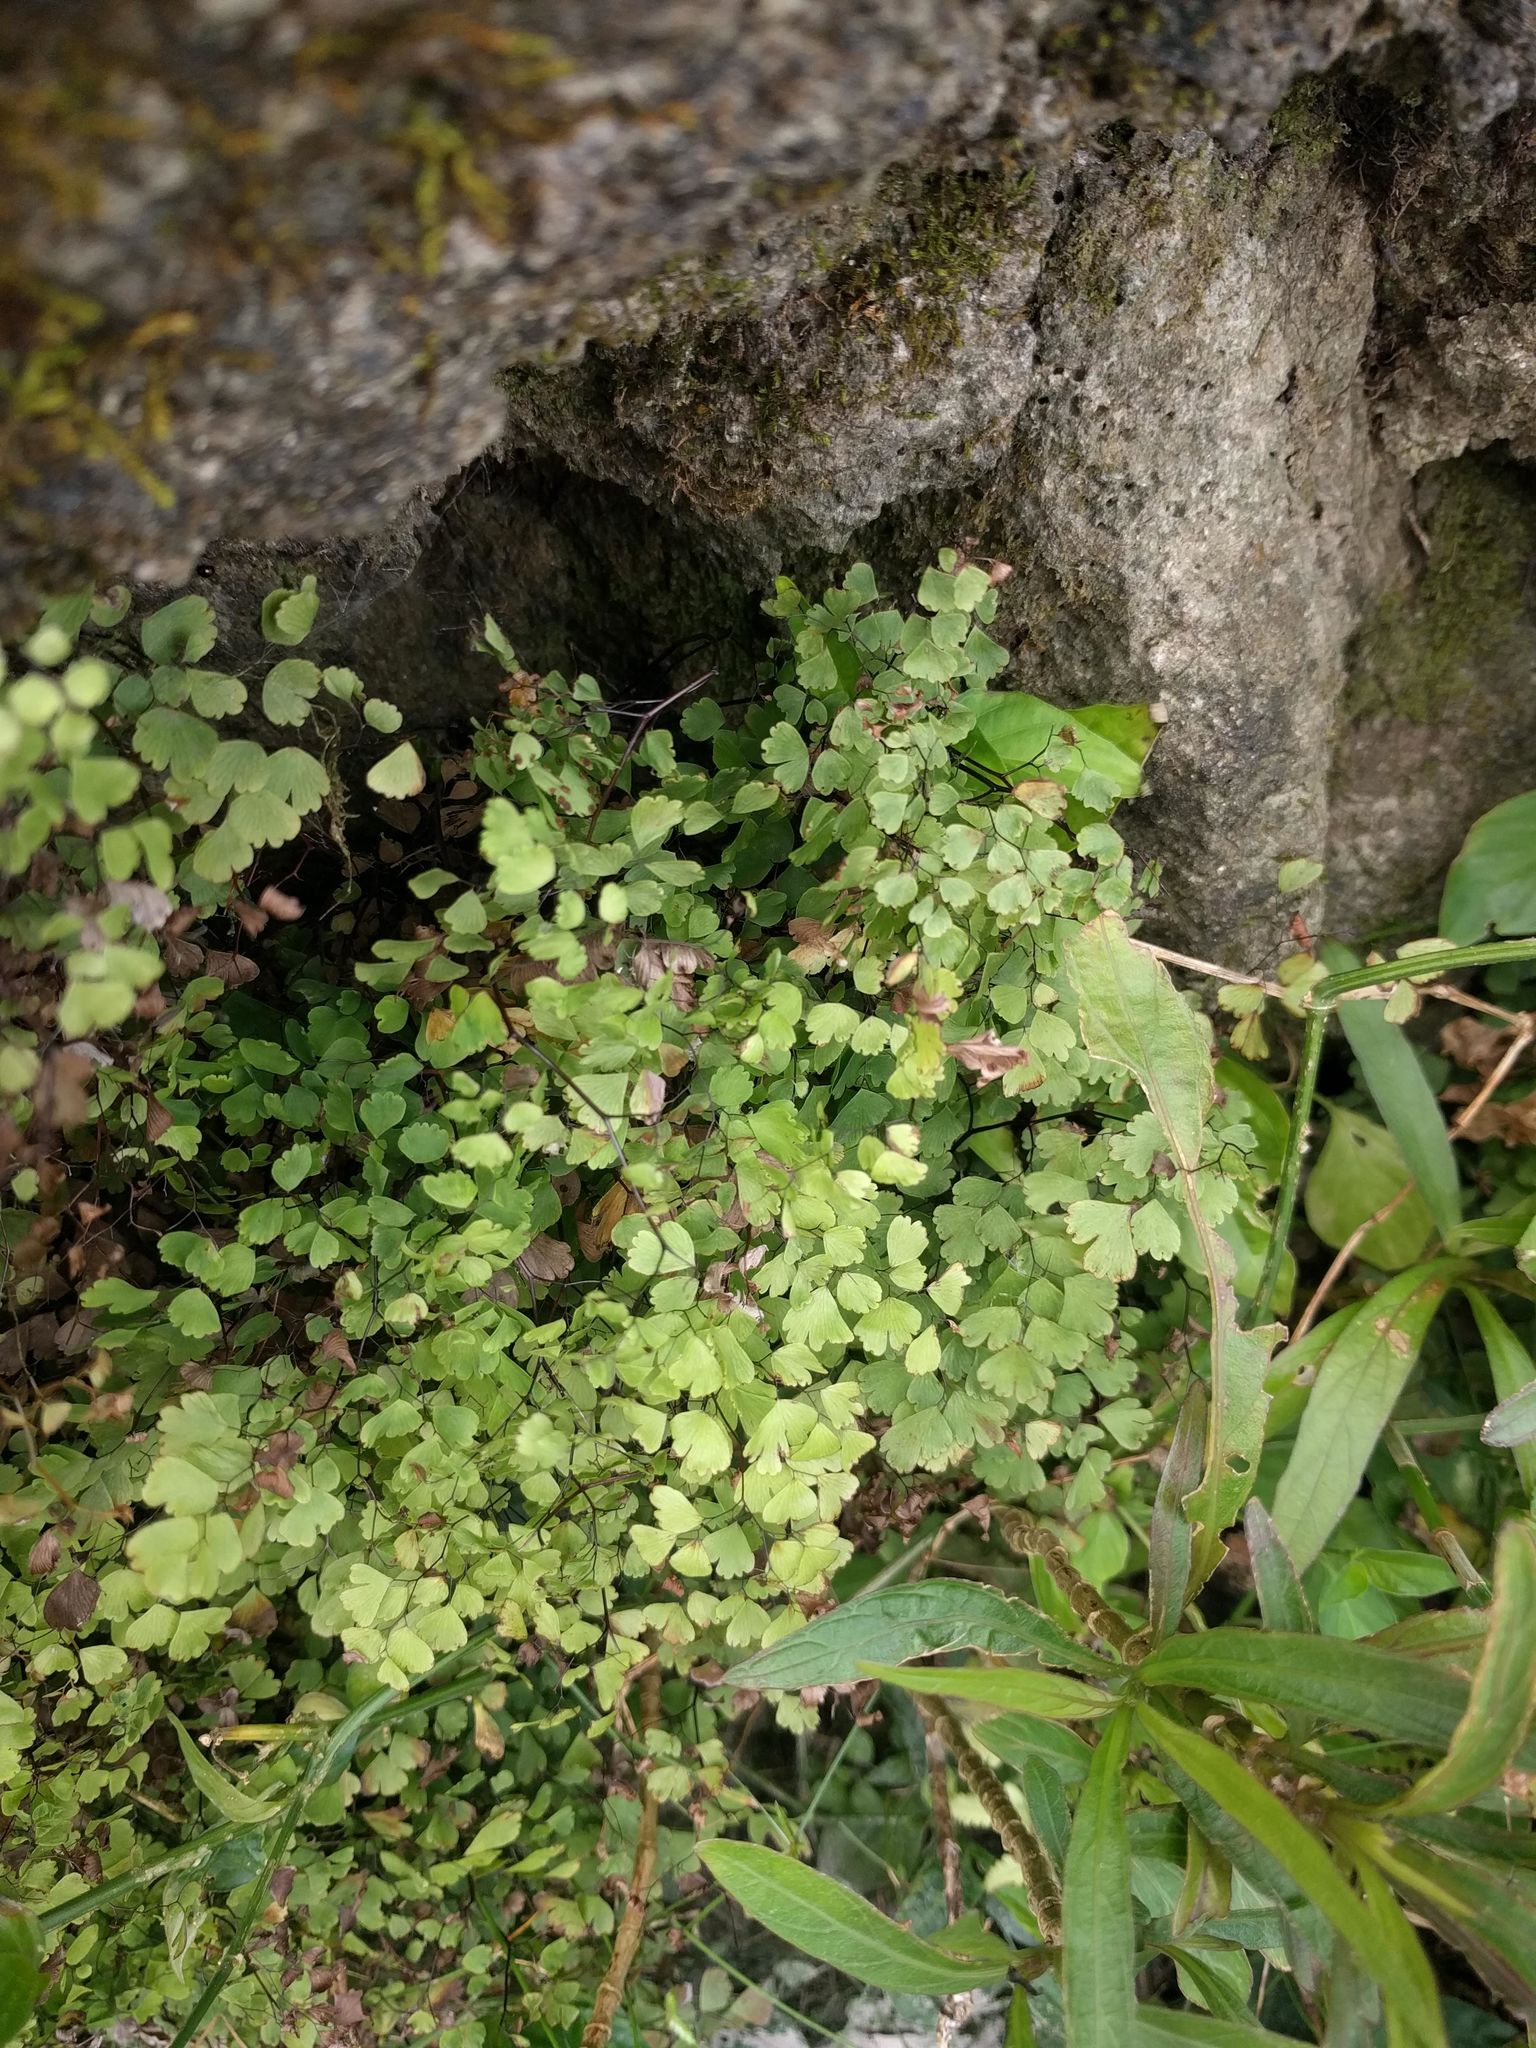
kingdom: Plantae
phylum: Tracheophyta
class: Polypodiopsida
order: Polypodiales
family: Pteridaceae
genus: Adiantum
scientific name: Adiantum raddianum
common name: Delta maidenhair fern
